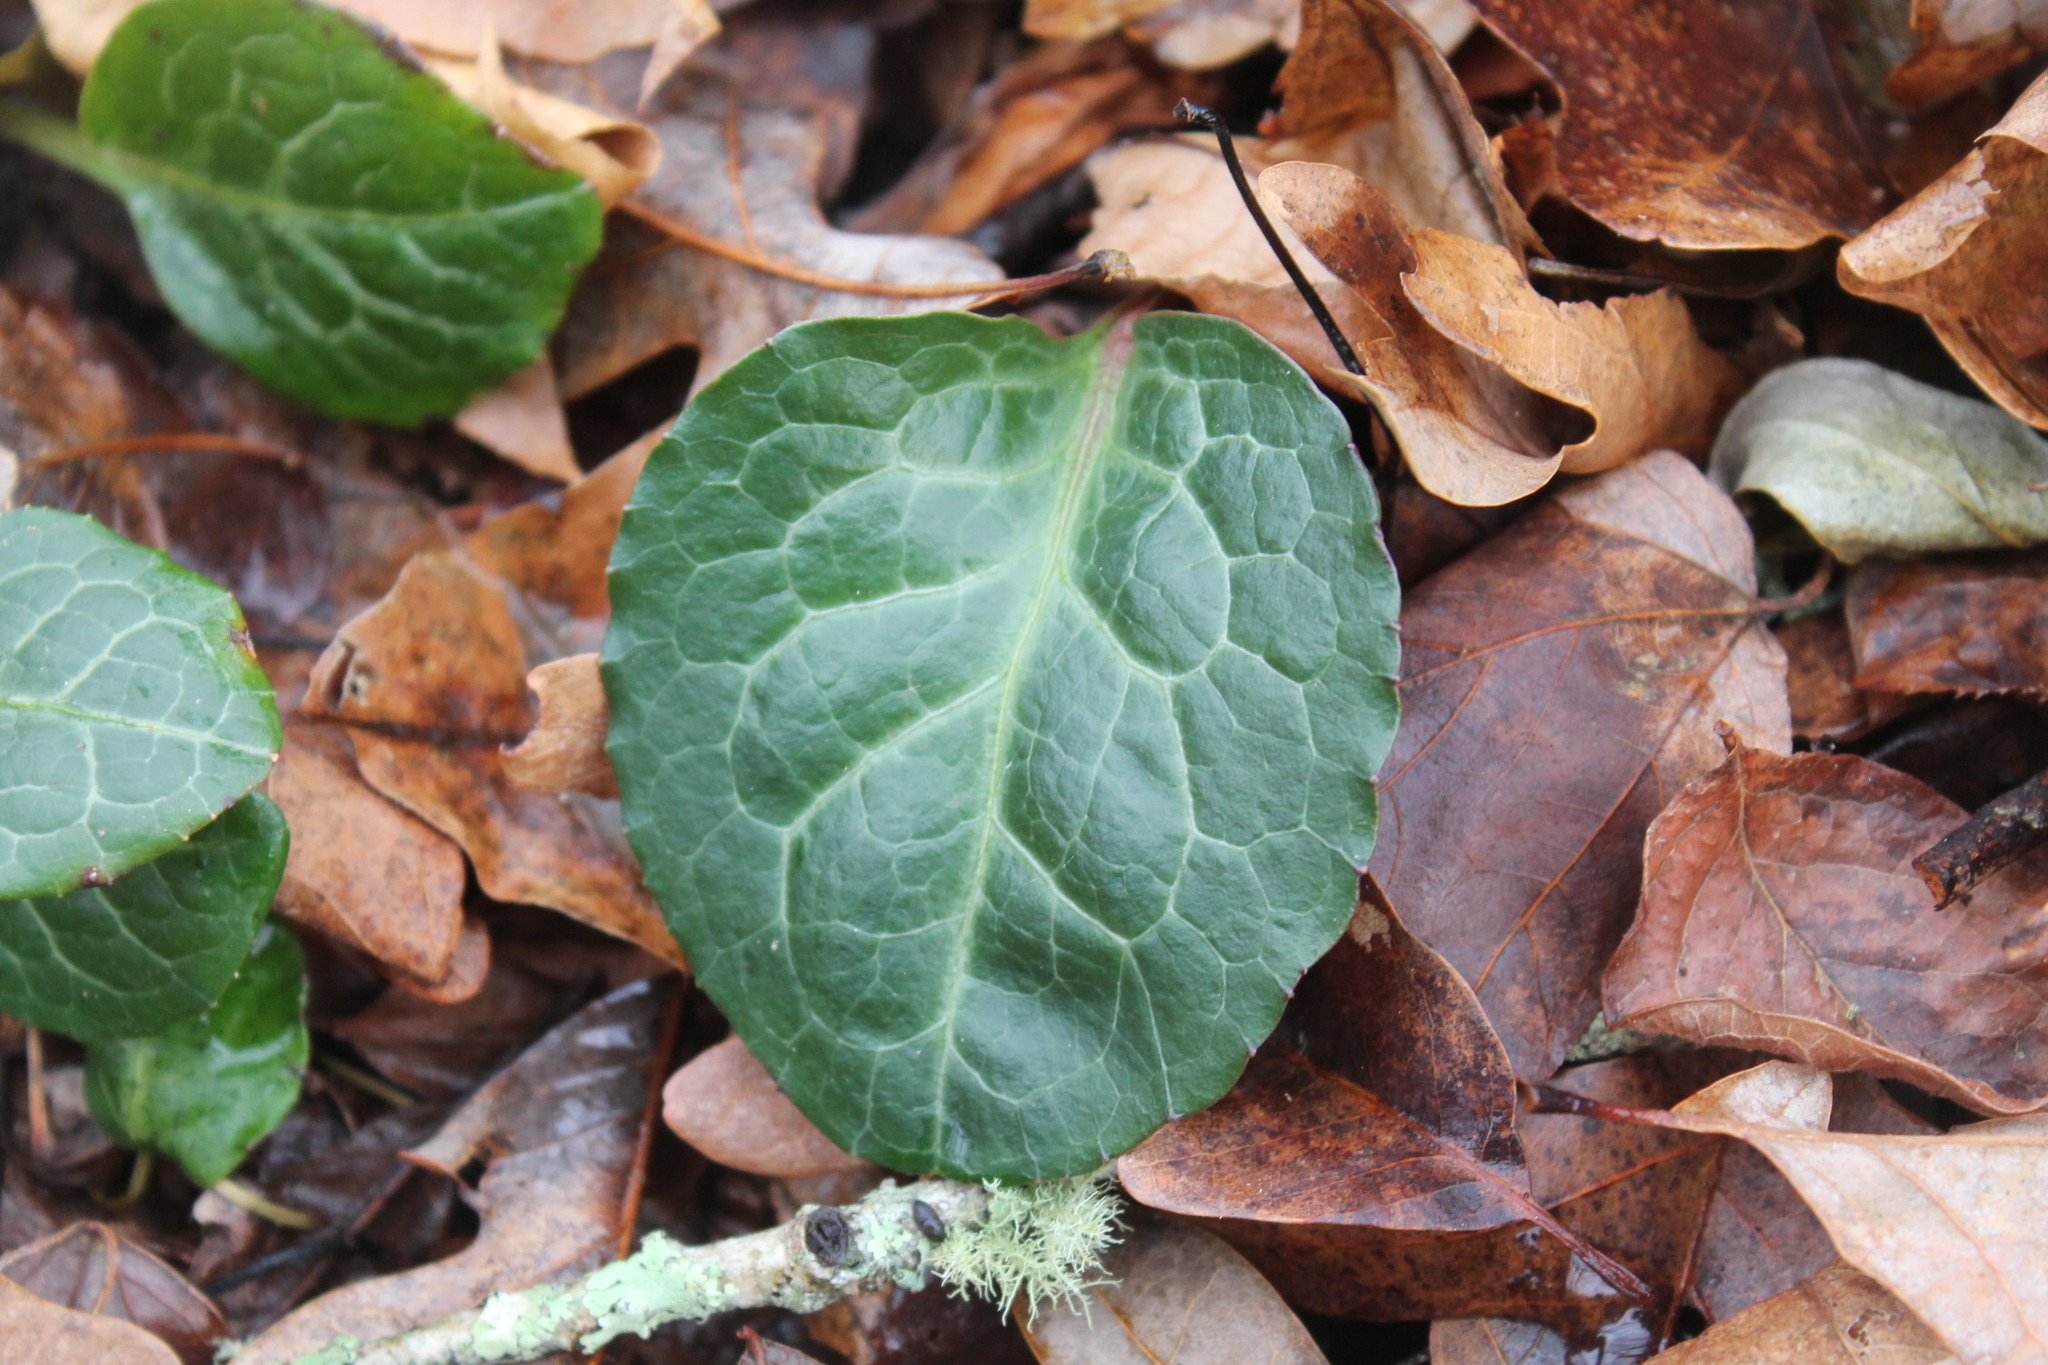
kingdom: Plantae
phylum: Tracheophyta
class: Magnoliopsida
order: Ericales
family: Ericaceae
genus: Pyrola
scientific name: Pyrola americana
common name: American wintergreen
